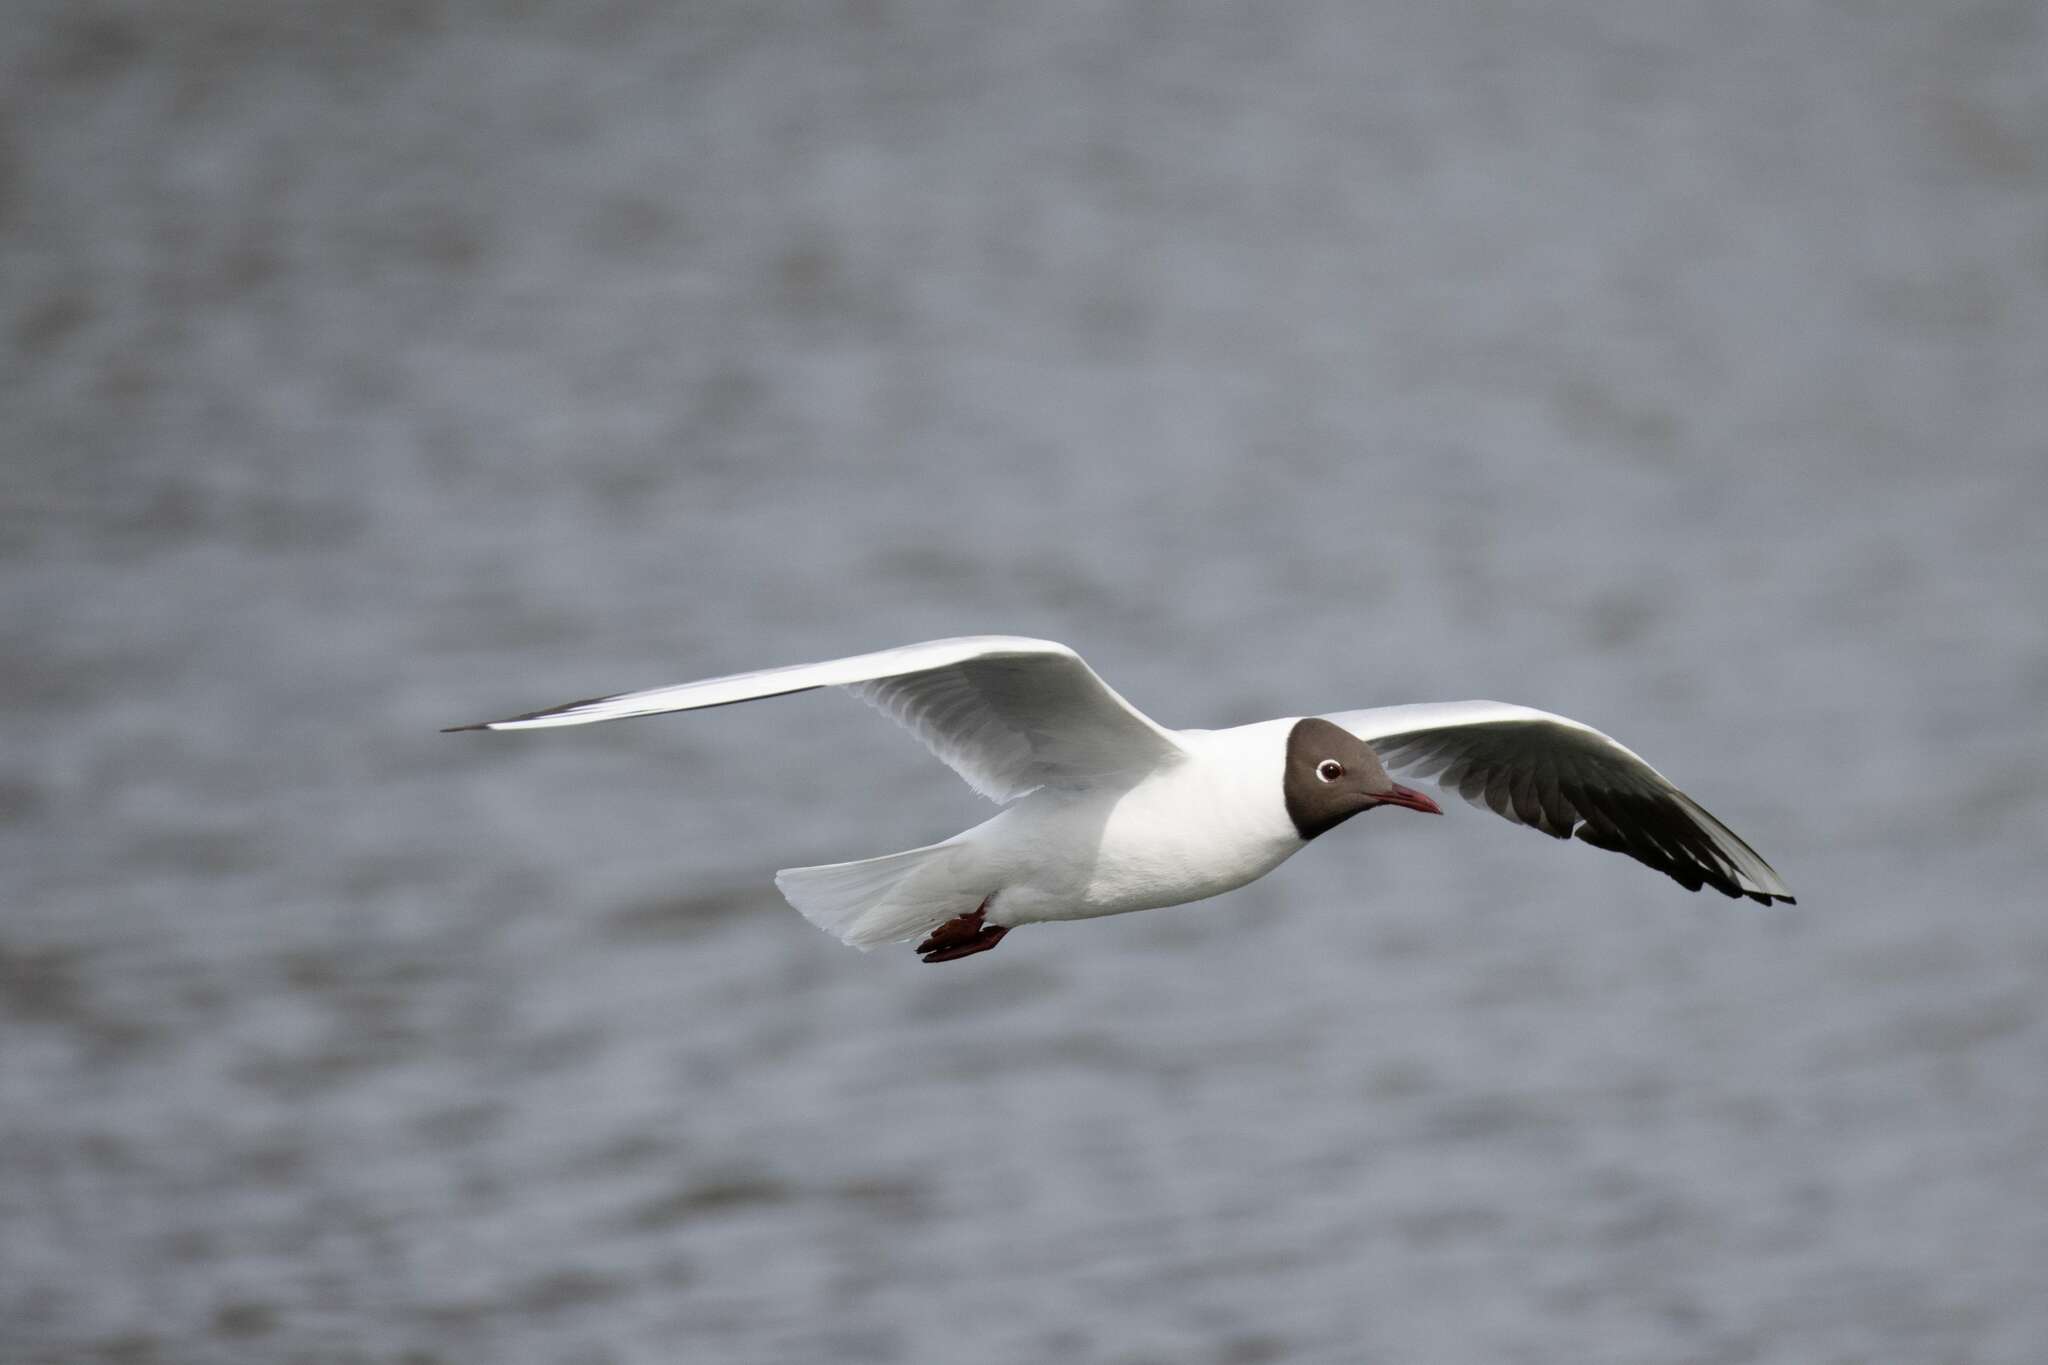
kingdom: Animalia
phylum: Chordata
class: Aves
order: Charadriiformes
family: Laridae
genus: Chroicocephalus
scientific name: Chroicocephalus ridibundus
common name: Black-headed gull
